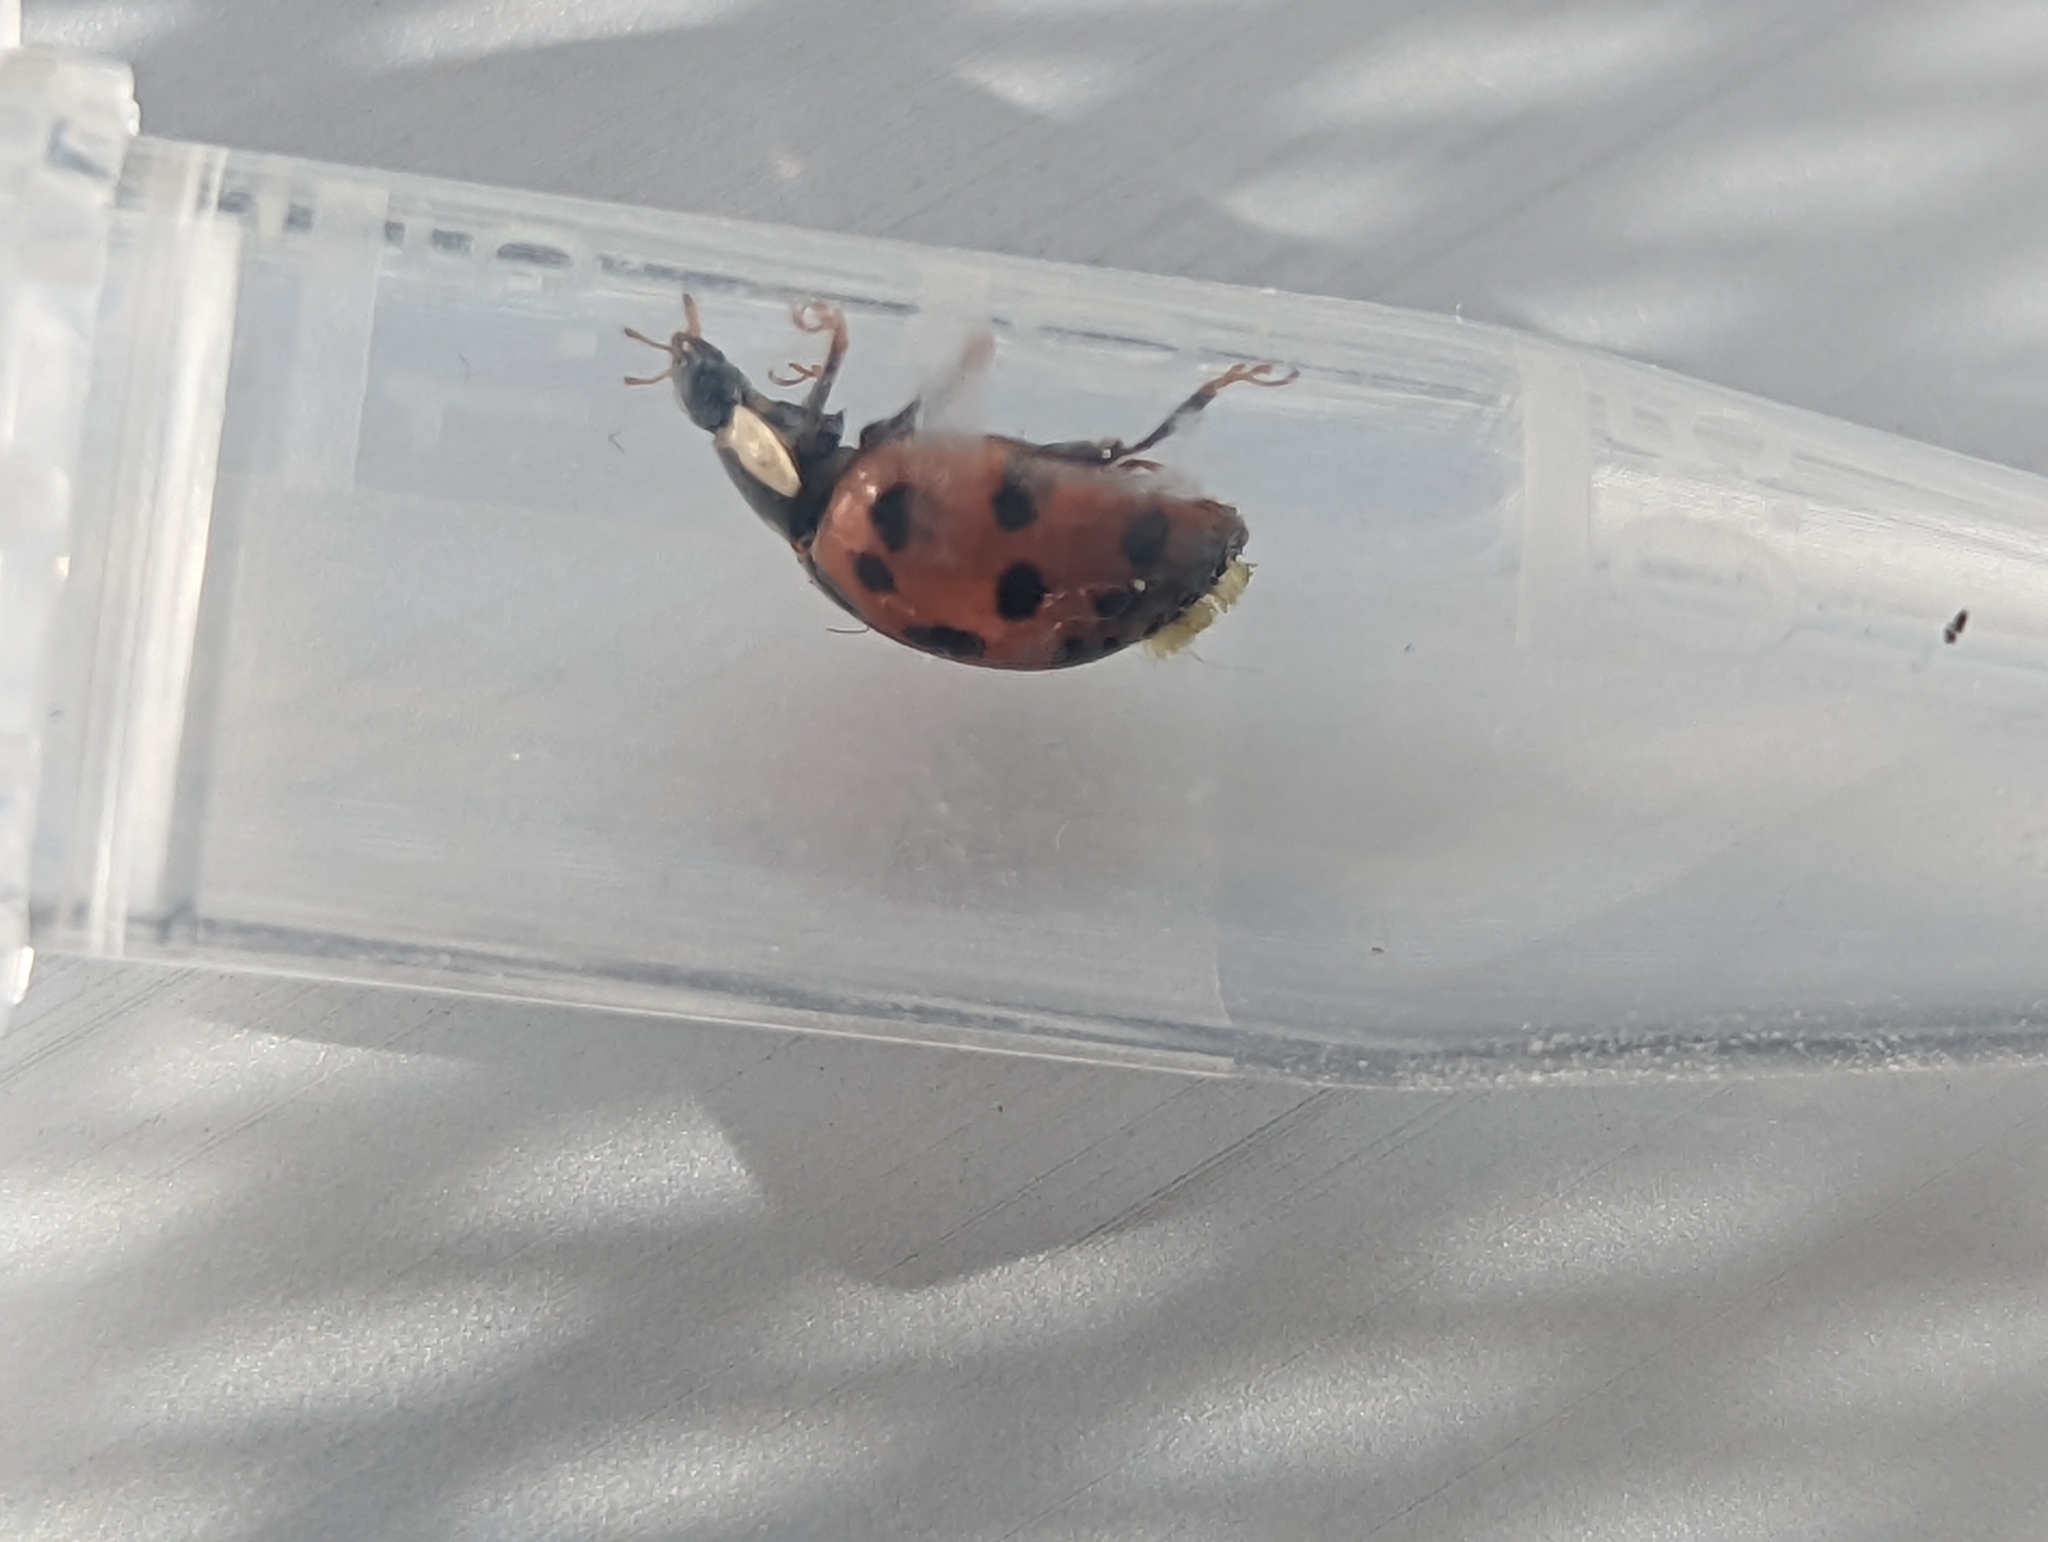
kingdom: Fungi
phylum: Ascomycota
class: Laboulbeniomycetes
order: Laboulbeniales
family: Laboulbeniaceae
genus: Hesperomyces
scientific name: Hesperomyces harmoniae
